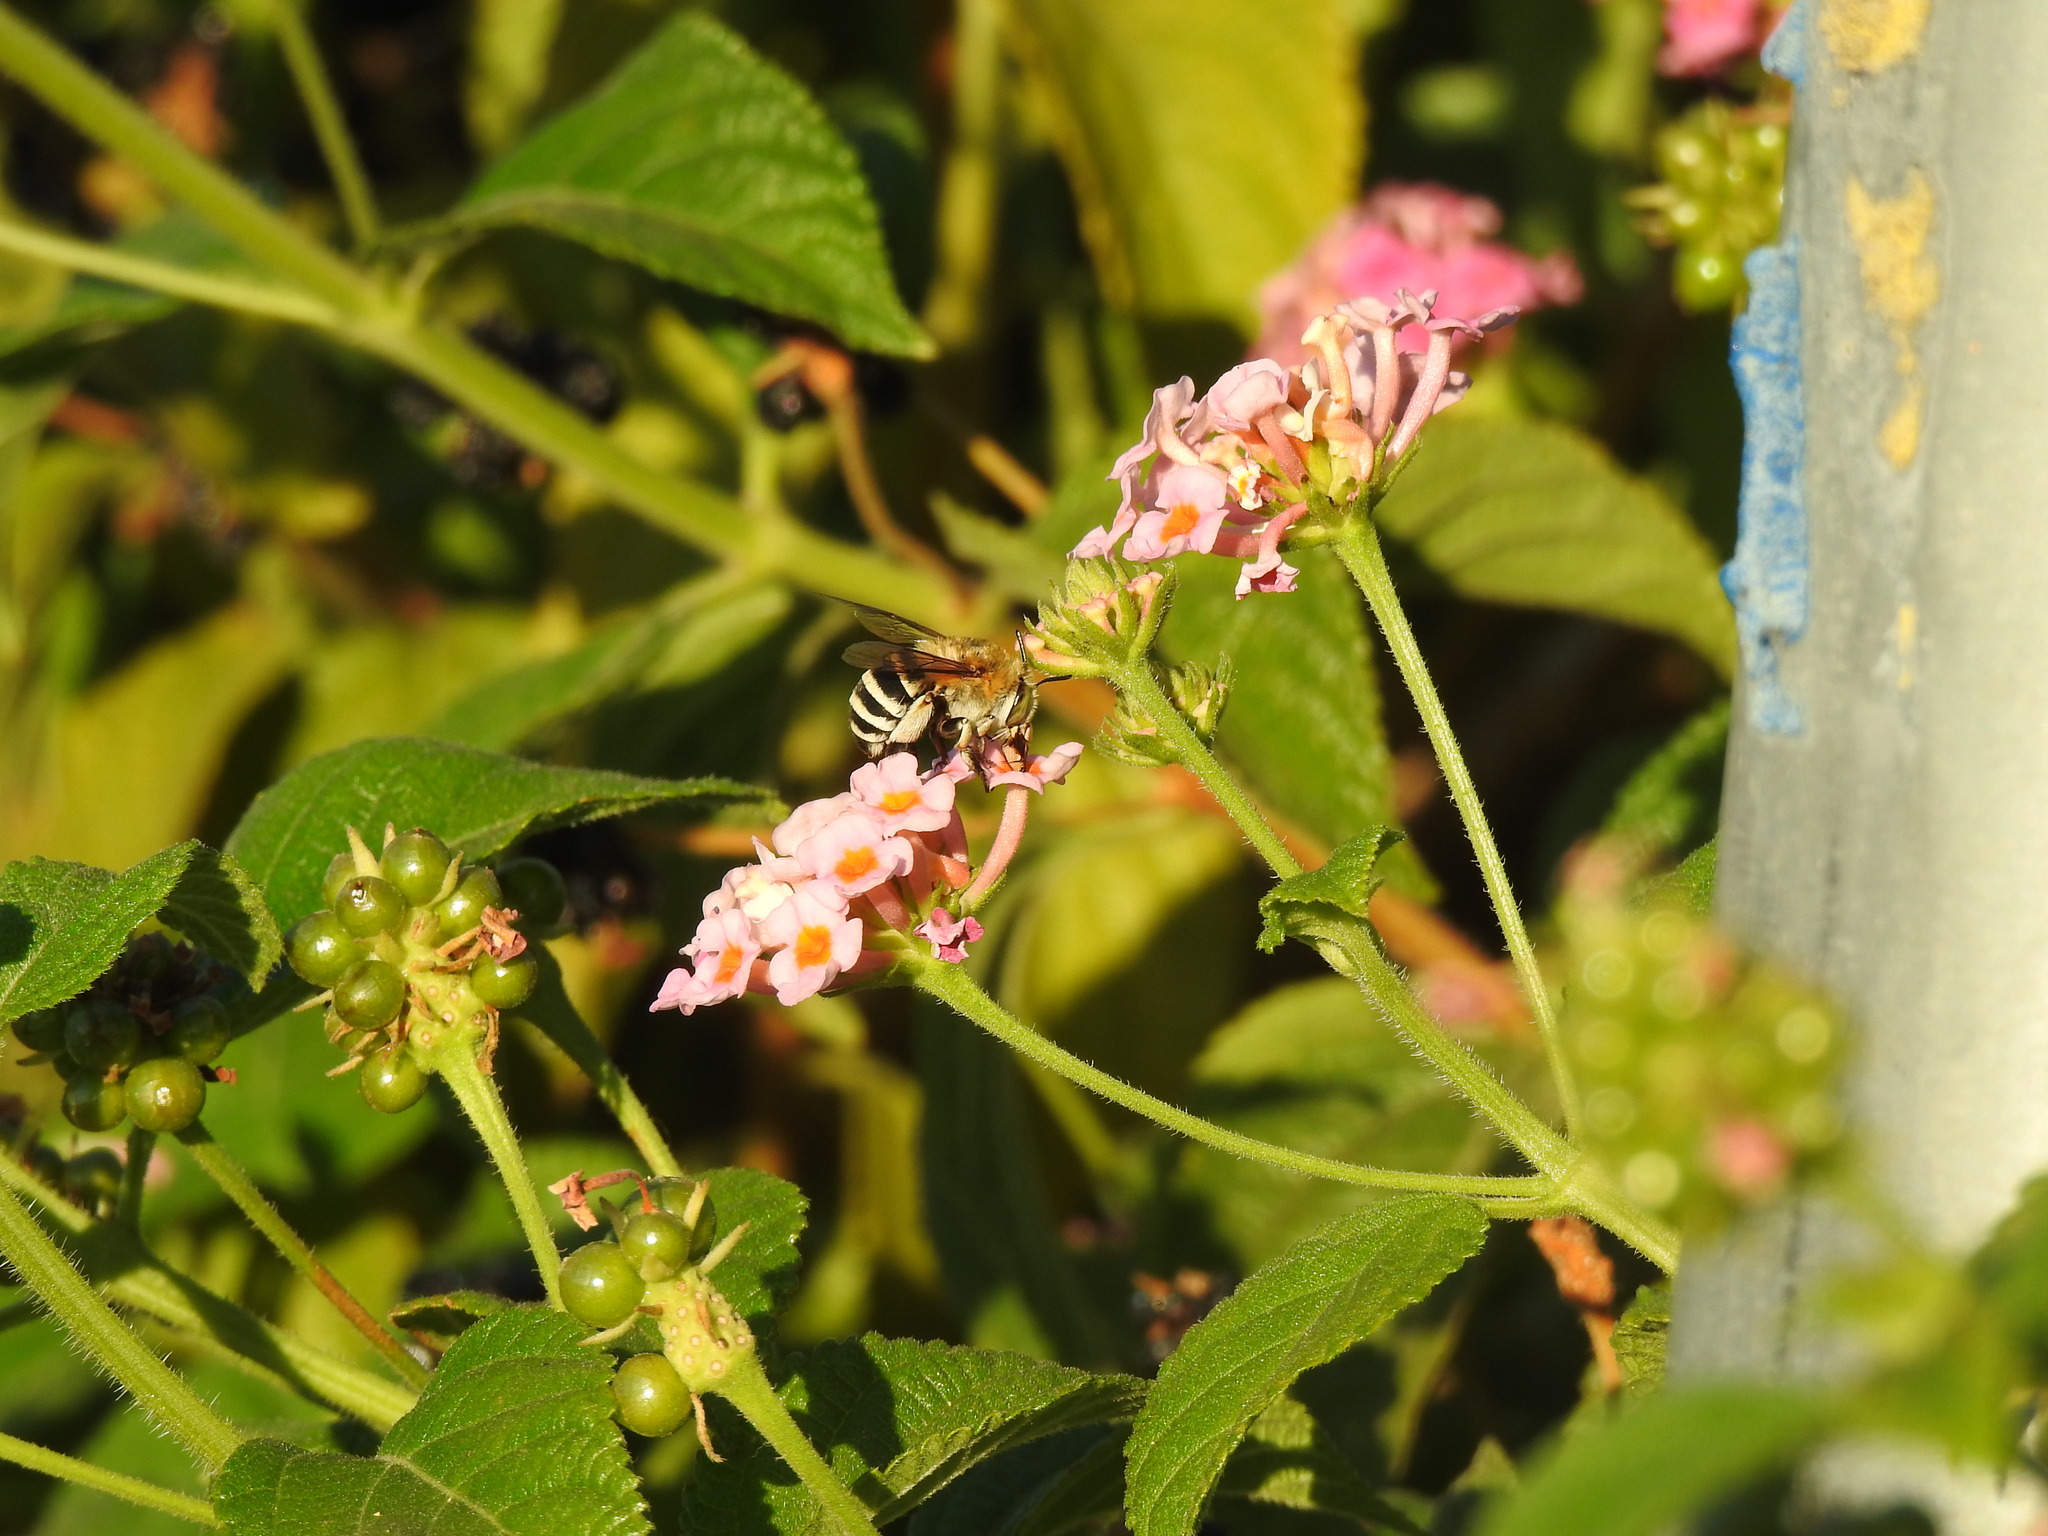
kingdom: Animalia
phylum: Arthropoda
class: Insecta
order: Hymenoptera
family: Apidae
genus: Amegilla
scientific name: Amegilla quadrifasciata
